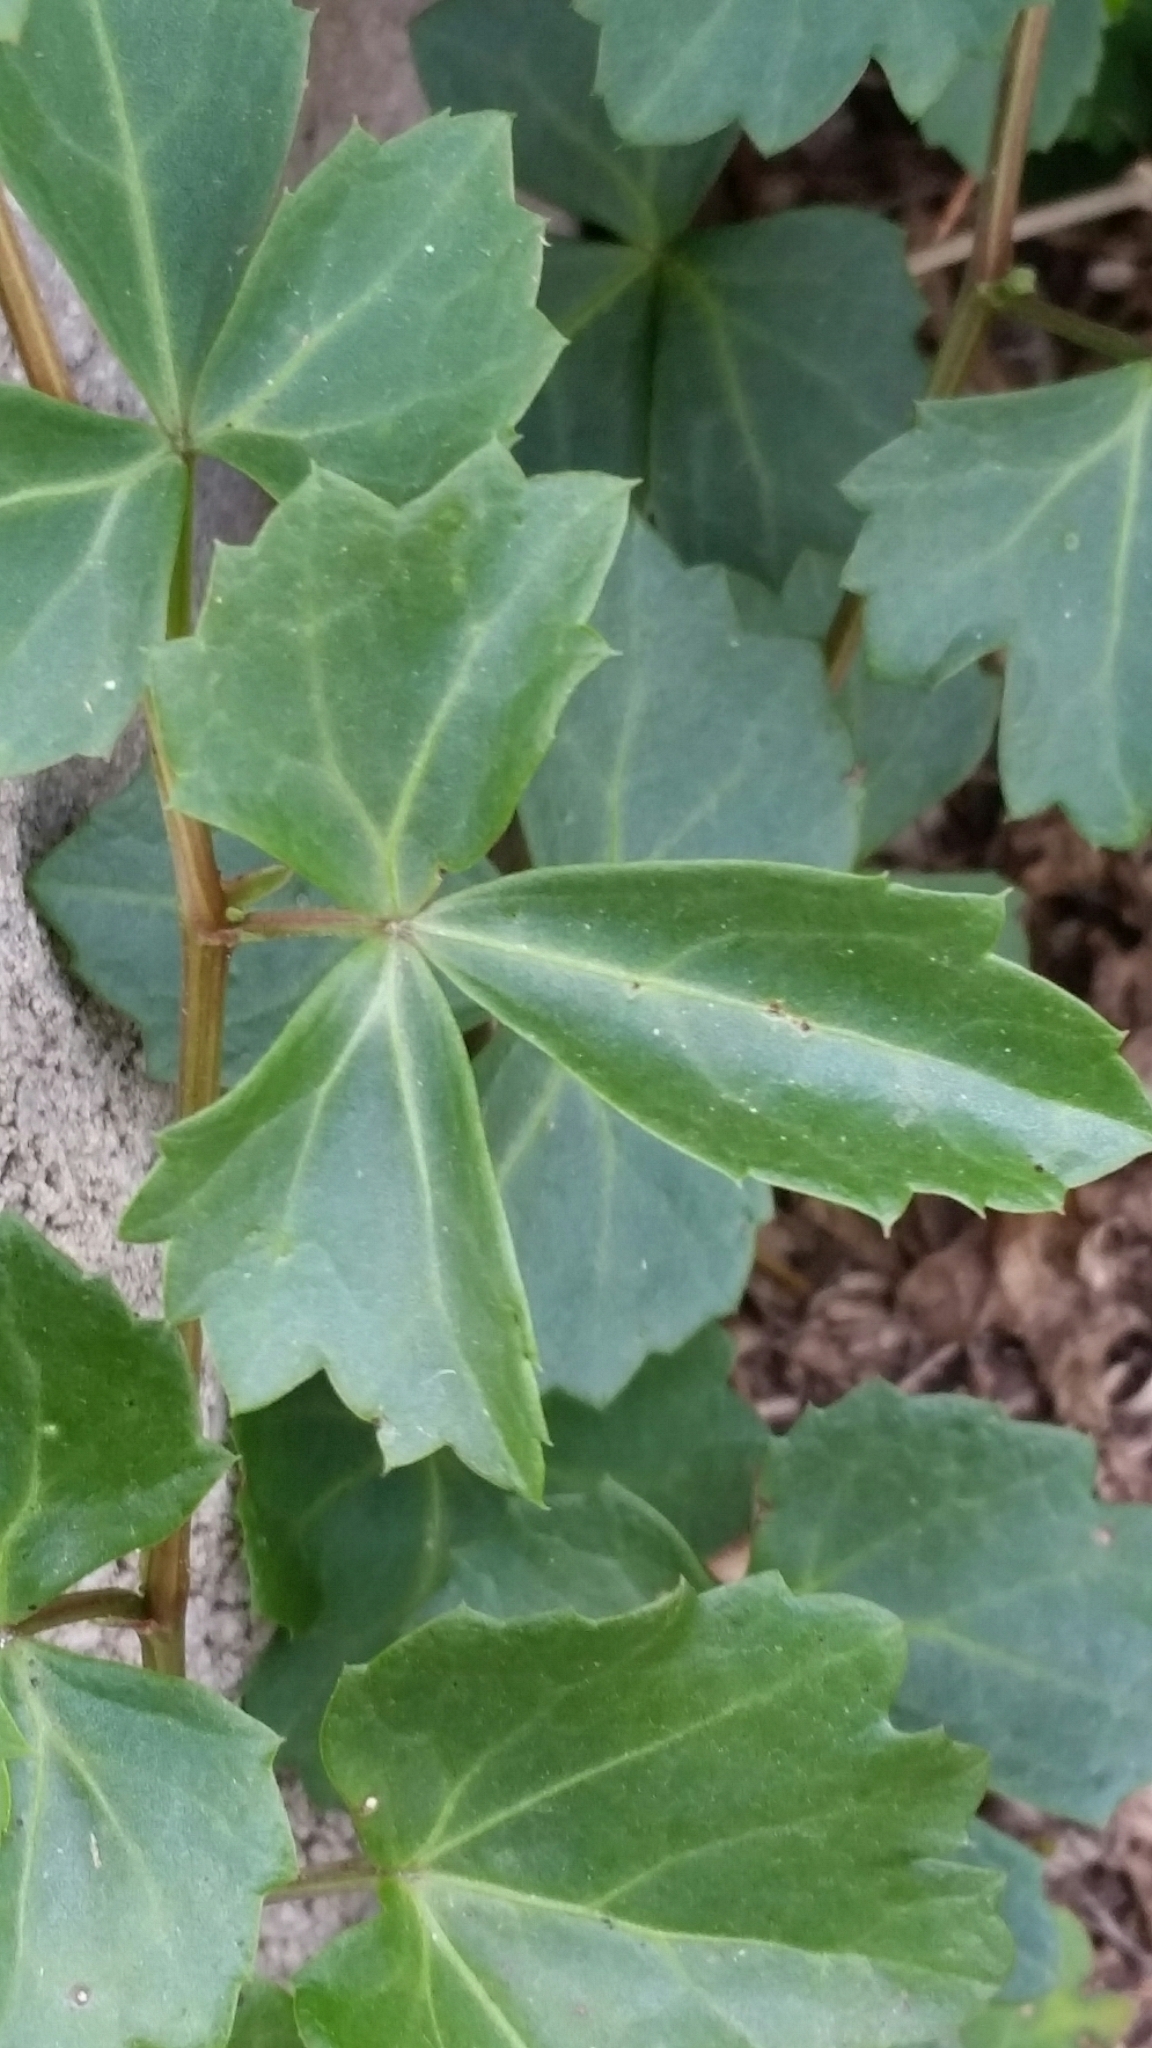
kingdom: Plantae
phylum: Tracheophyta
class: Magnoliopsida
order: Vitales
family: Vitaceae
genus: Cissus
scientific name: Cissus trifoliata
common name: Vine-sorrel
